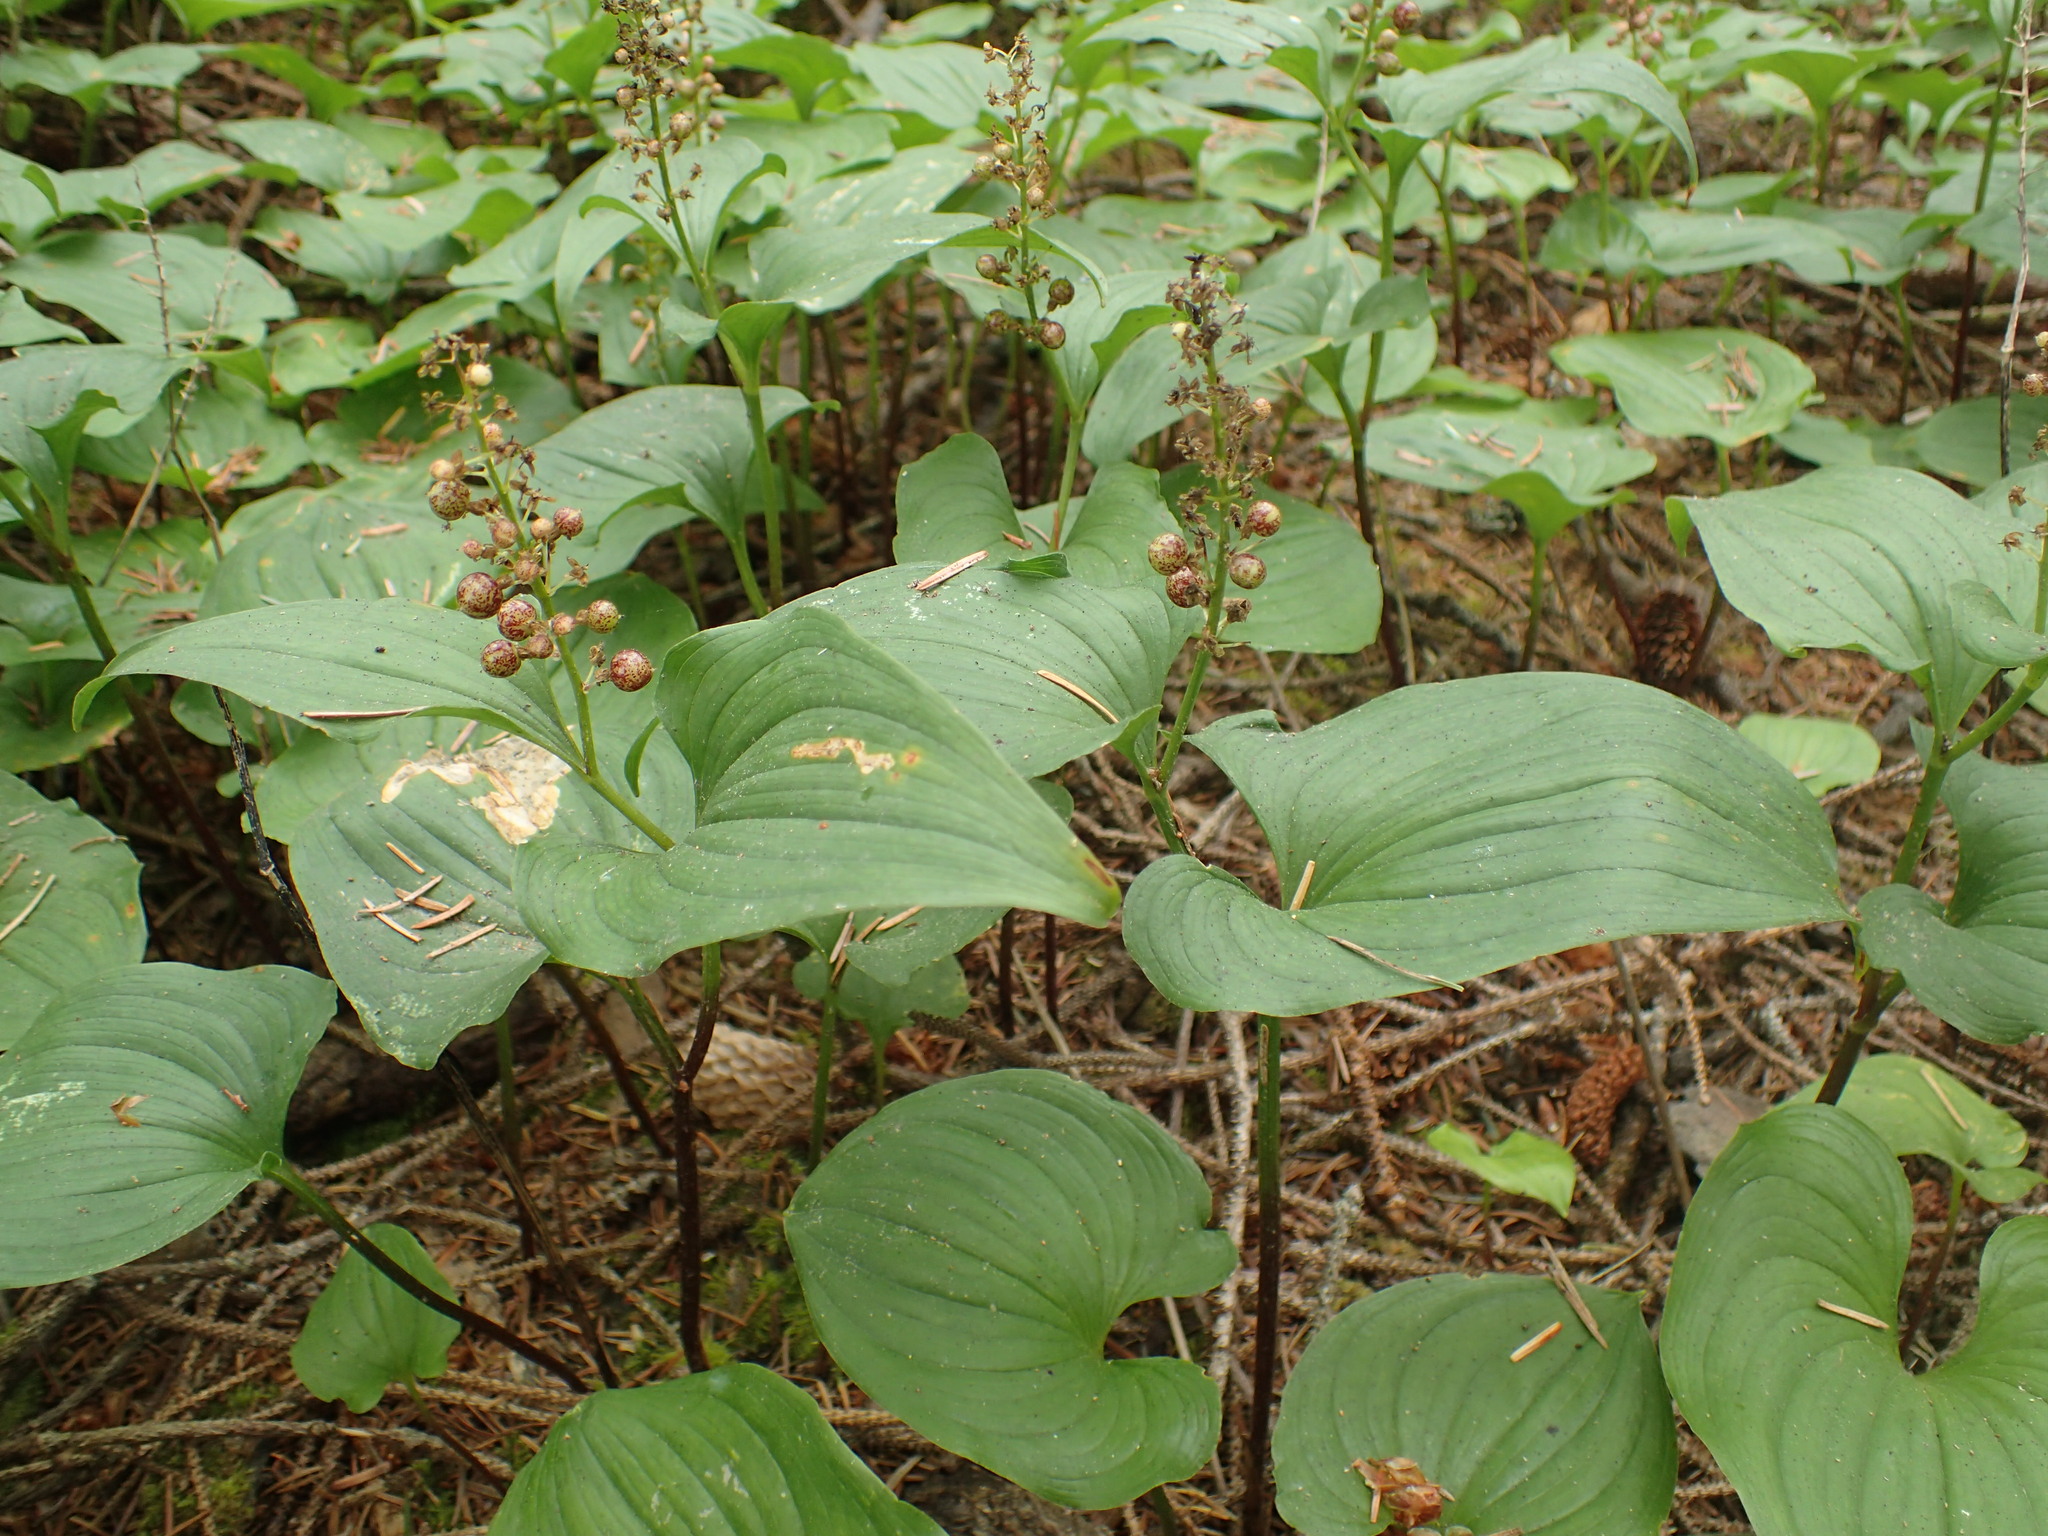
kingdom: Plantae
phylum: Tracheophyta
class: Liliopsida
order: Asparagales
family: Asparagaceae
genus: Maianthemum
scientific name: Maianthemum dilatatum
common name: False lily-of-the-valley
